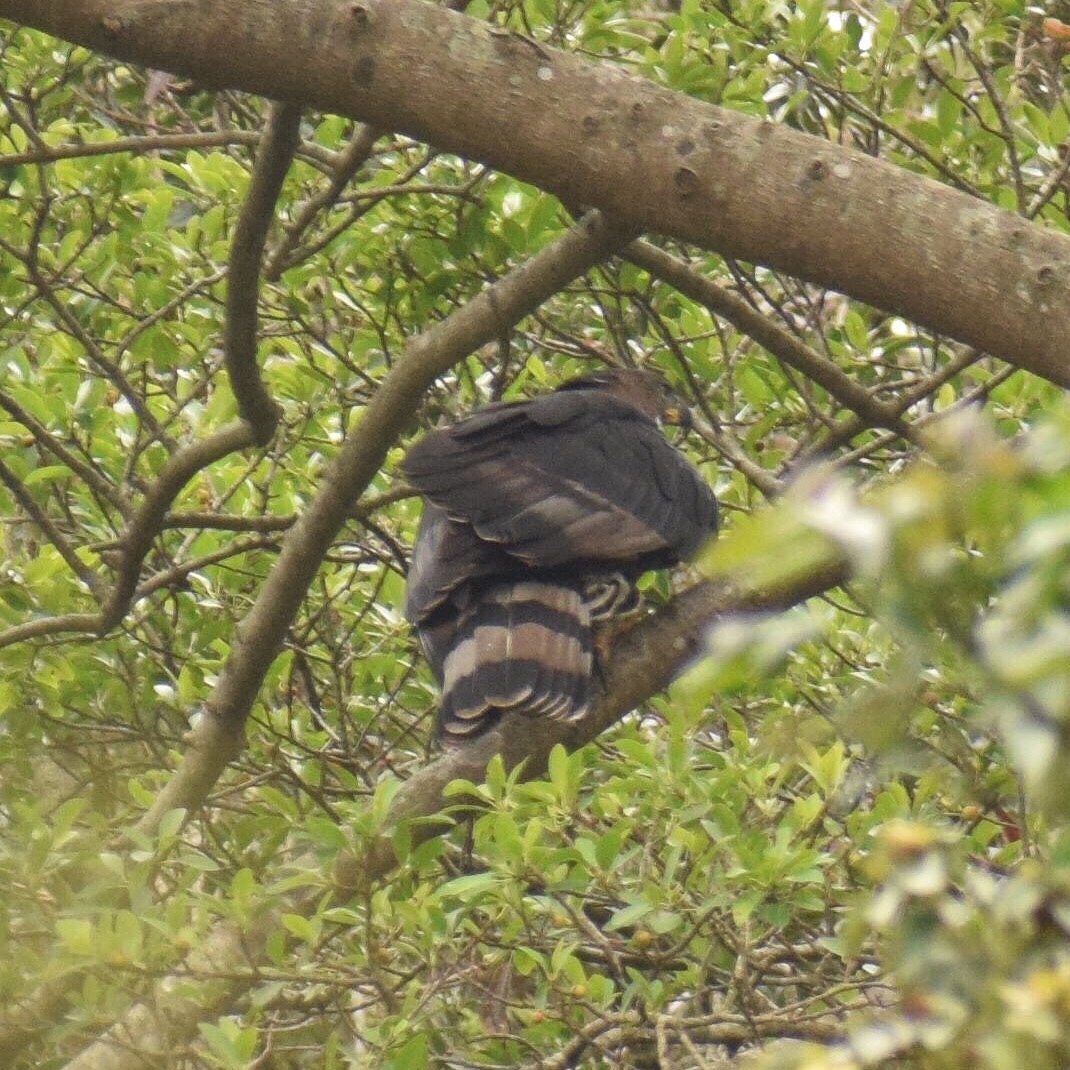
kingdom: Animalia
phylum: Chordata
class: Aves
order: Accipitriformes
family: Accipitridae
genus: Stephanoaetus
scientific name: Stephanoaetus coronatus
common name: Crowned eagle
